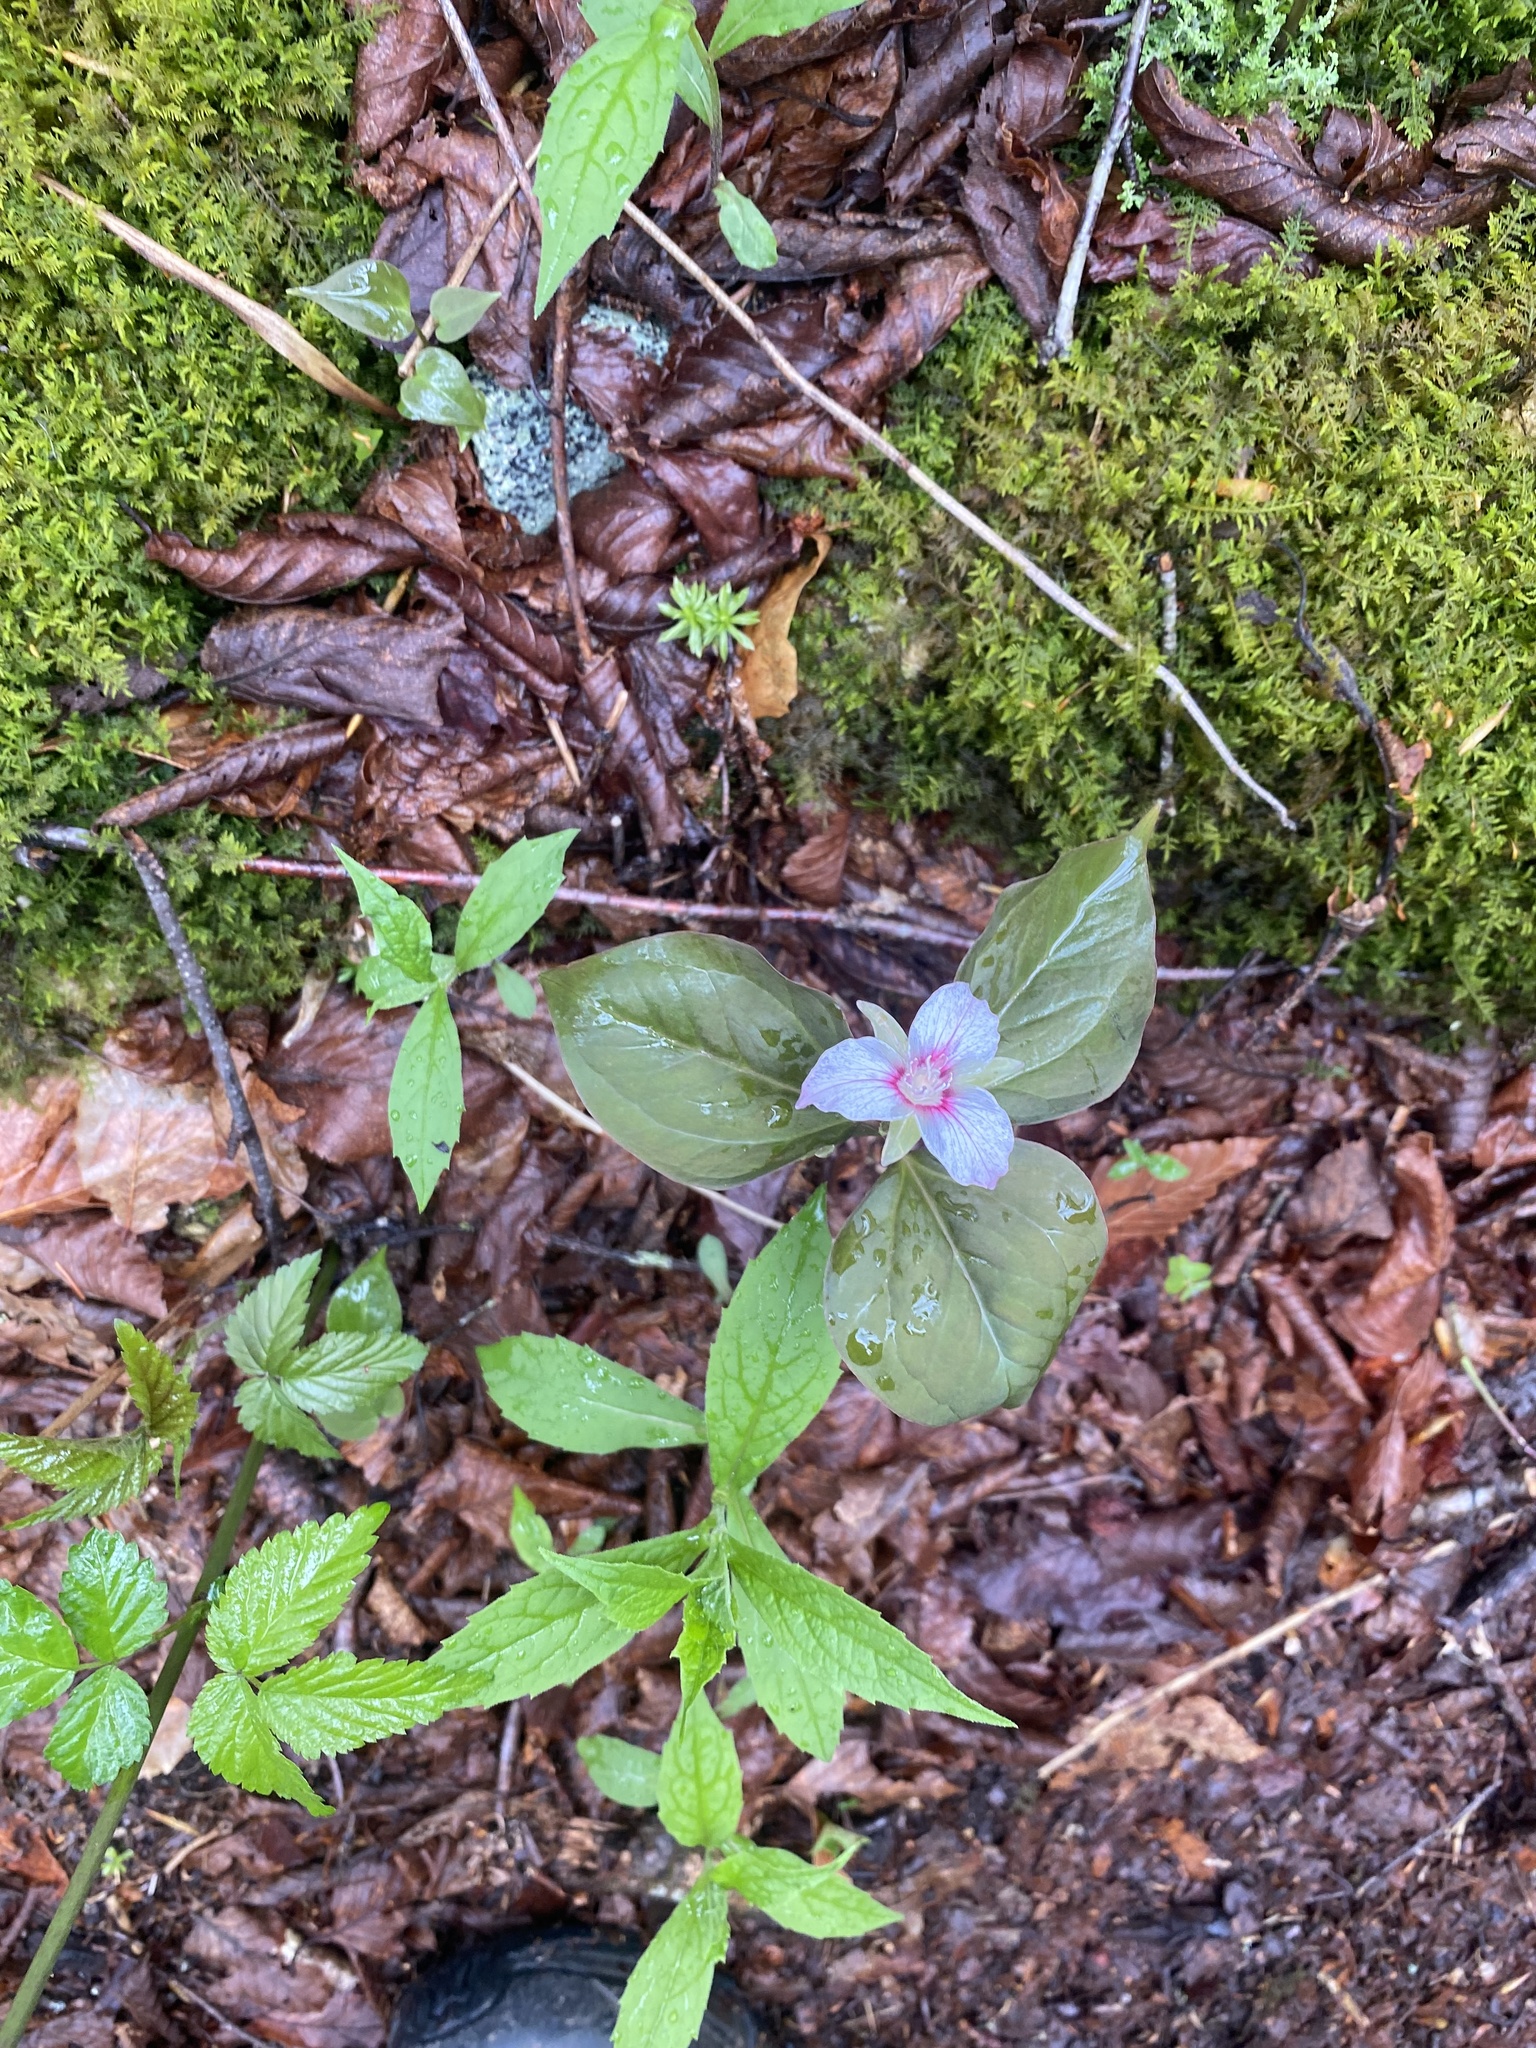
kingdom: Plantae
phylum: Tracheophyta
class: Liliopsida
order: Liliales
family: Melanthiaceae
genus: Trillium
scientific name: Trillium undulatum
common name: Paint trillium
